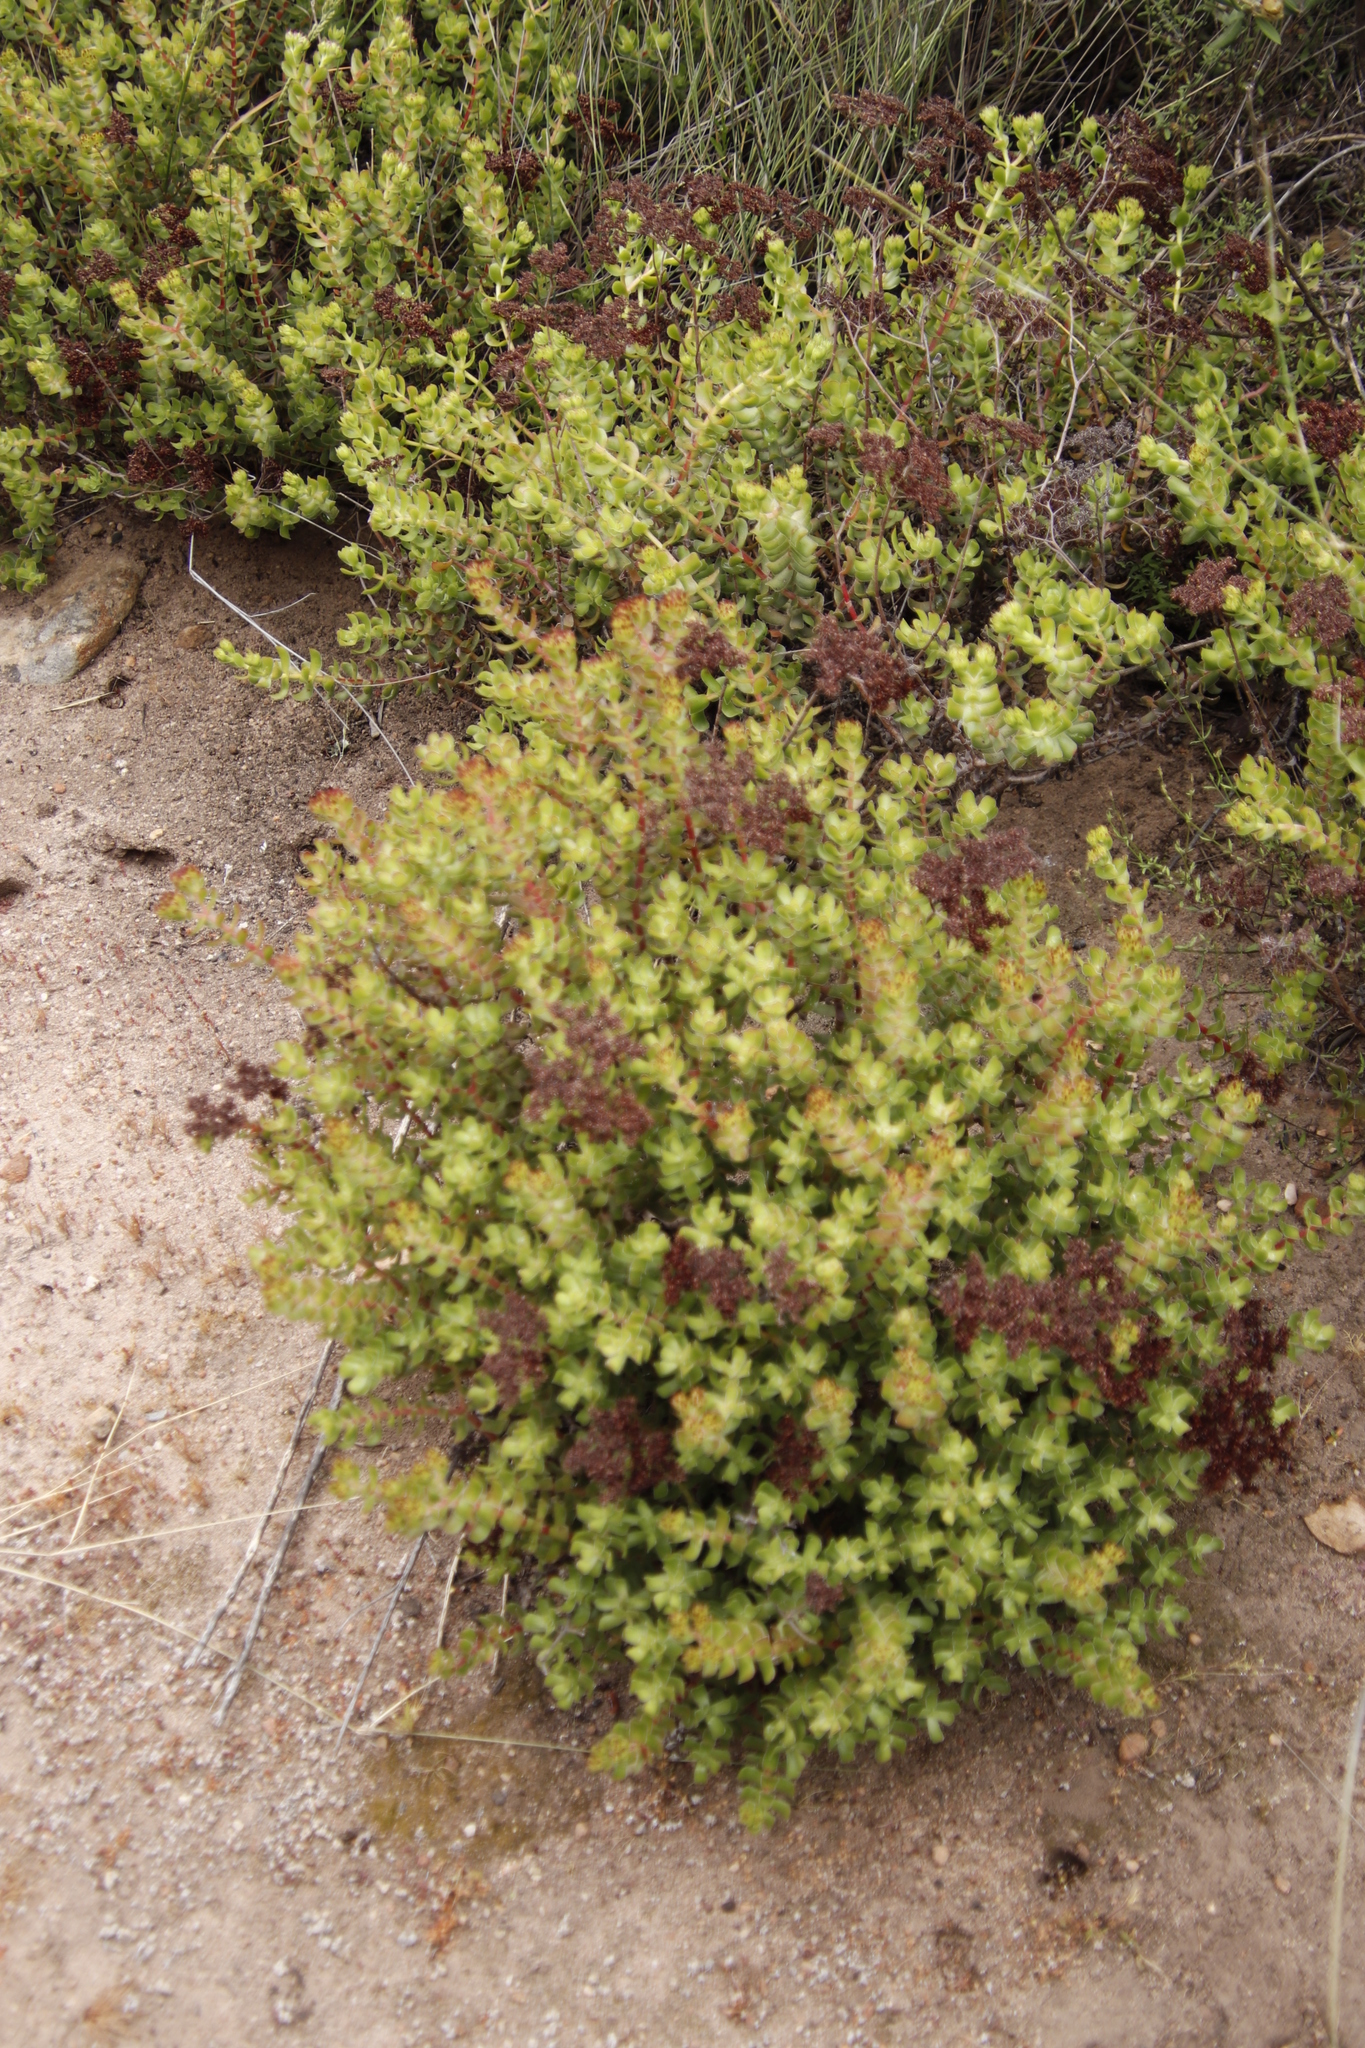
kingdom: Plantae
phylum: Tracheophyta
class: Magnoliopsida
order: Saxifragales
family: Crassulaceae
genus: Crassula
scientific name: Crassula undulata
